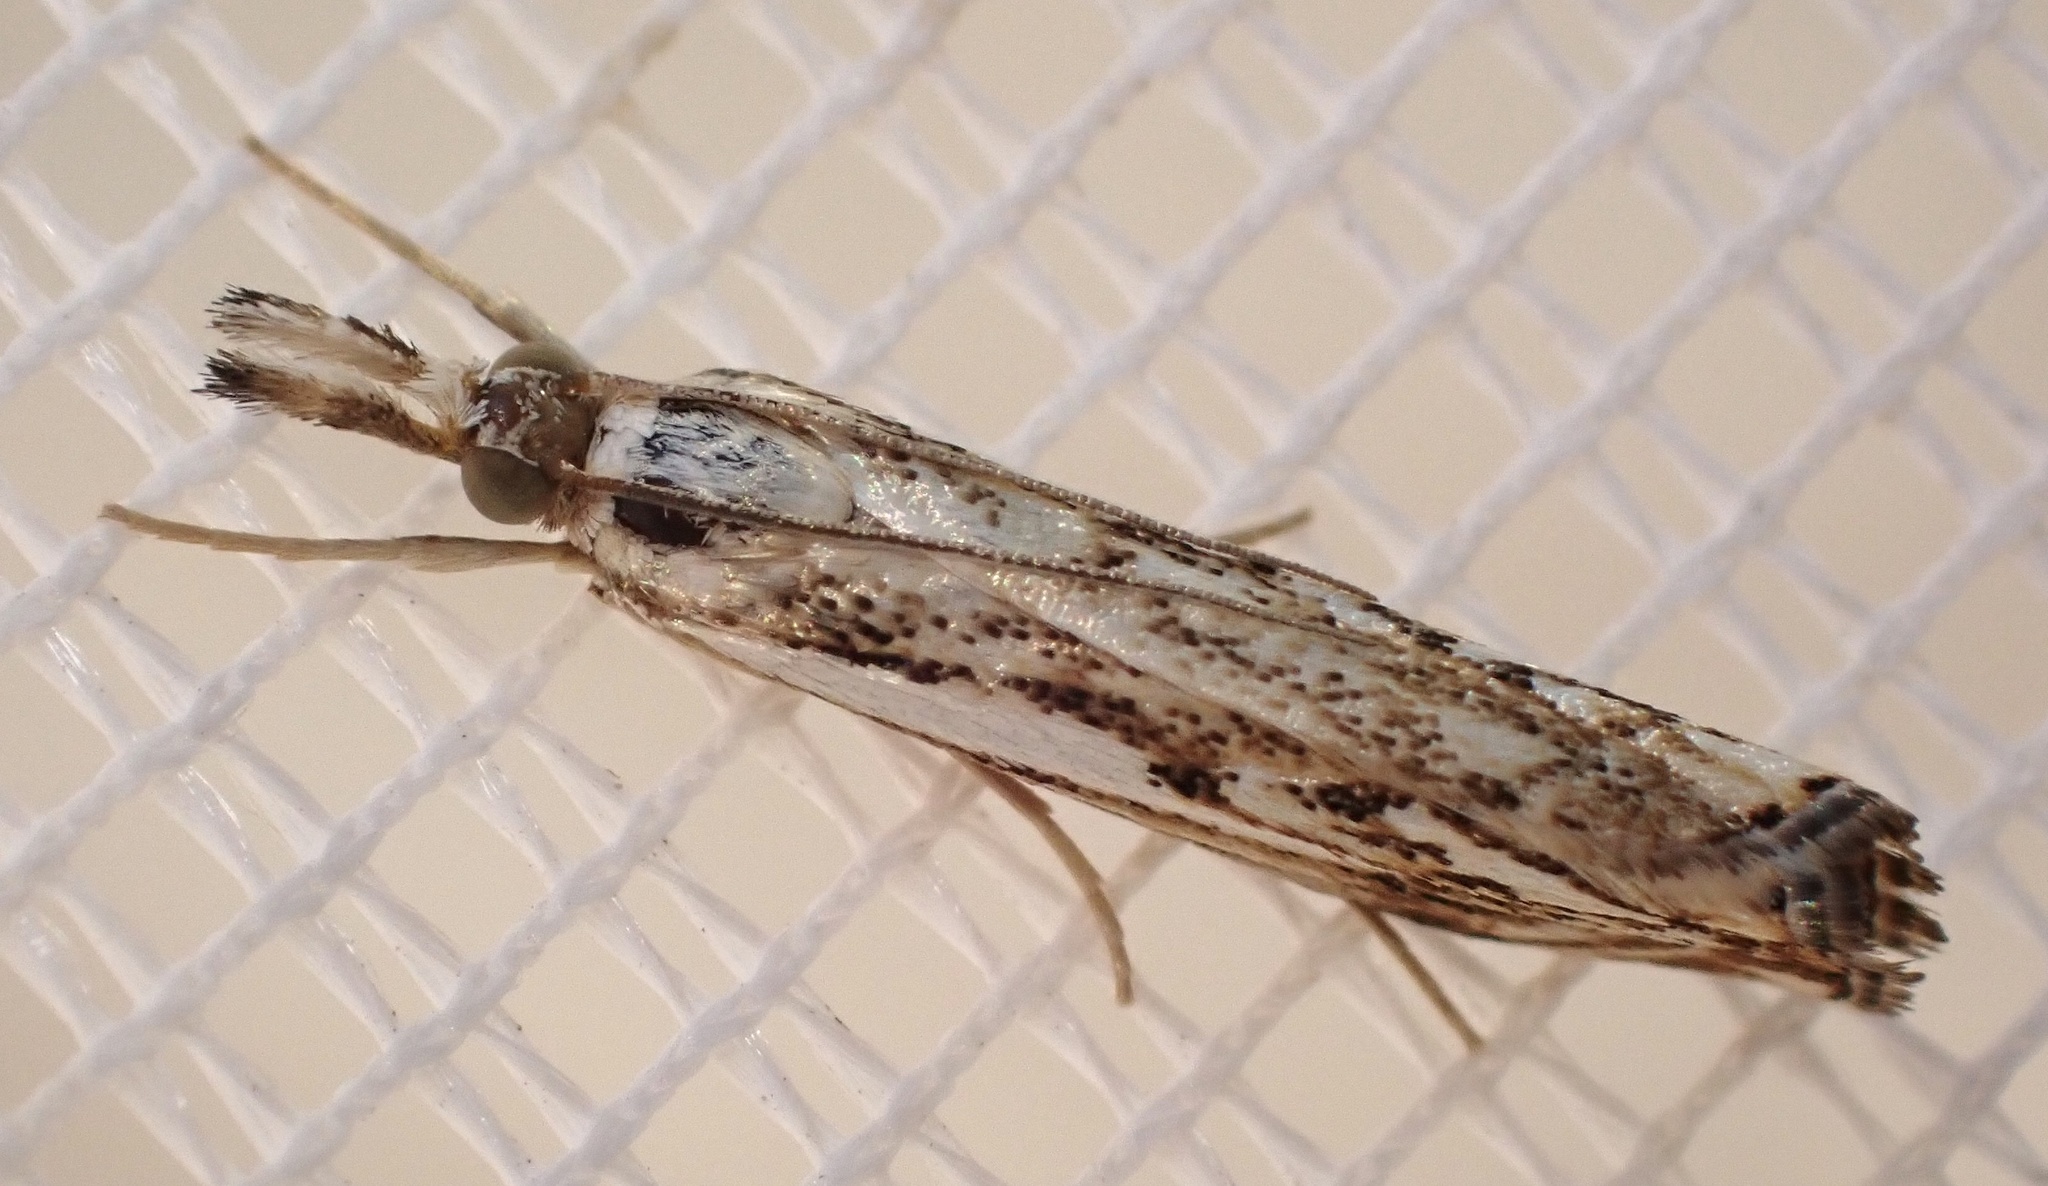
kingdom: Animalia
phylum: Arthropoda
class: Insecta
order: Lepidoptera
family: Crambidae
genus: Catoptria
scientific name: Catoptria falsella
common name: Chequered grass-veneer
